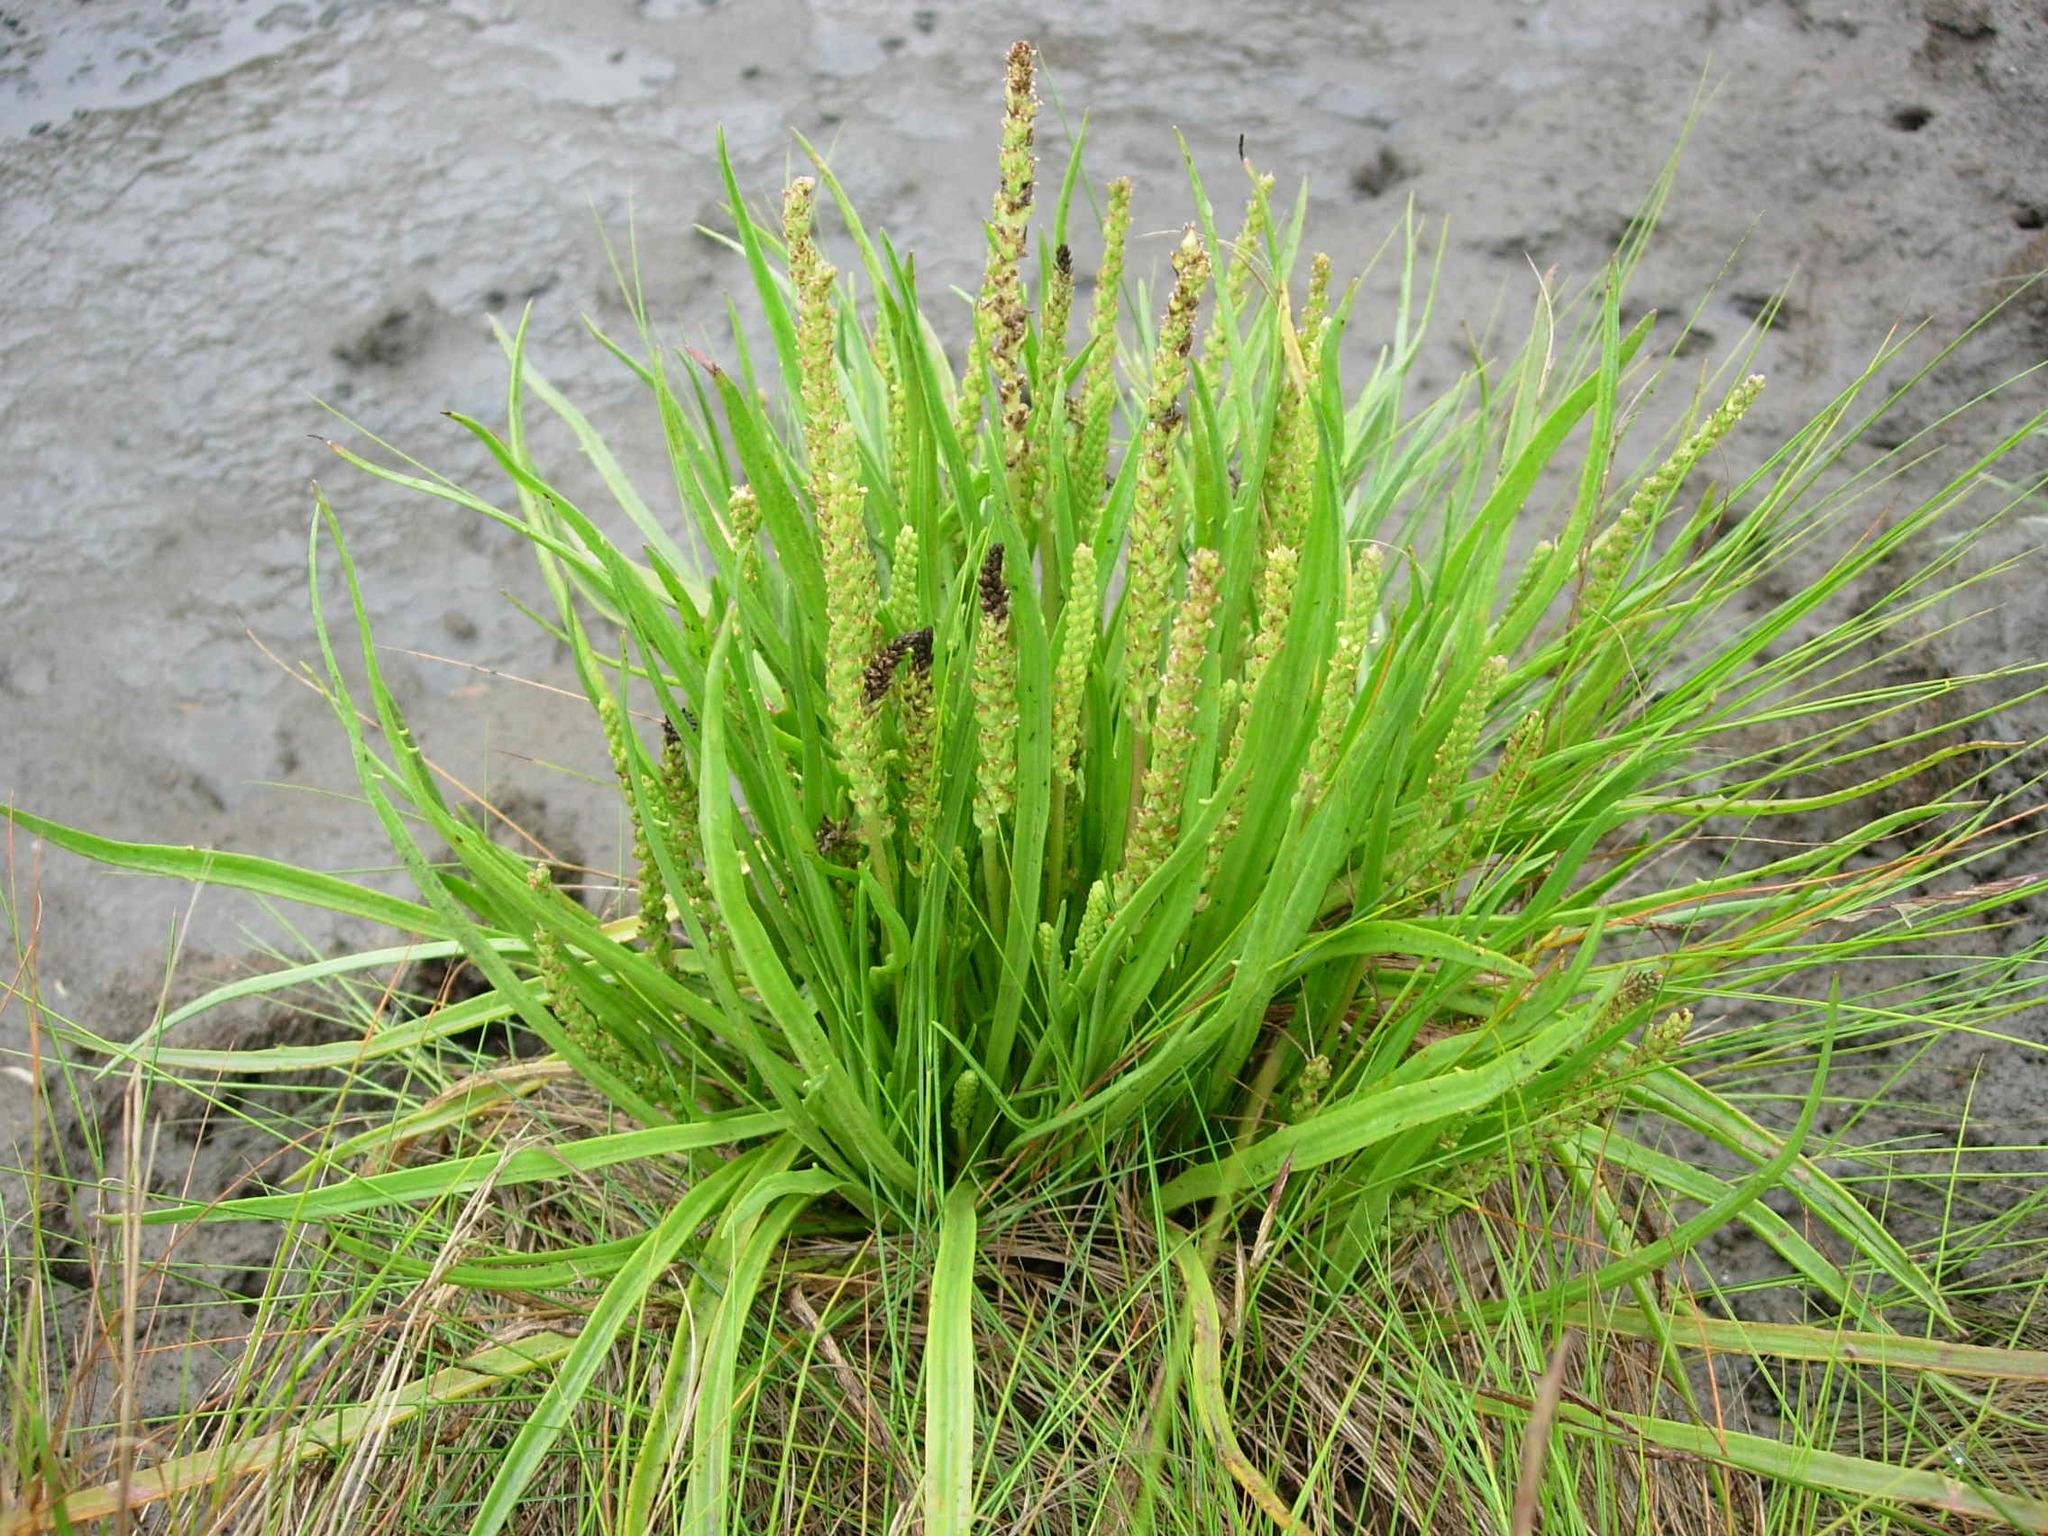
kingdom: Plantae
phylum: Tracheophyta
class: Magnoliopsida
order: Lamiales
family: Plantaginaceae
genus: Plantago
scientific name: Plantago maritima
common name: Sea plantain
